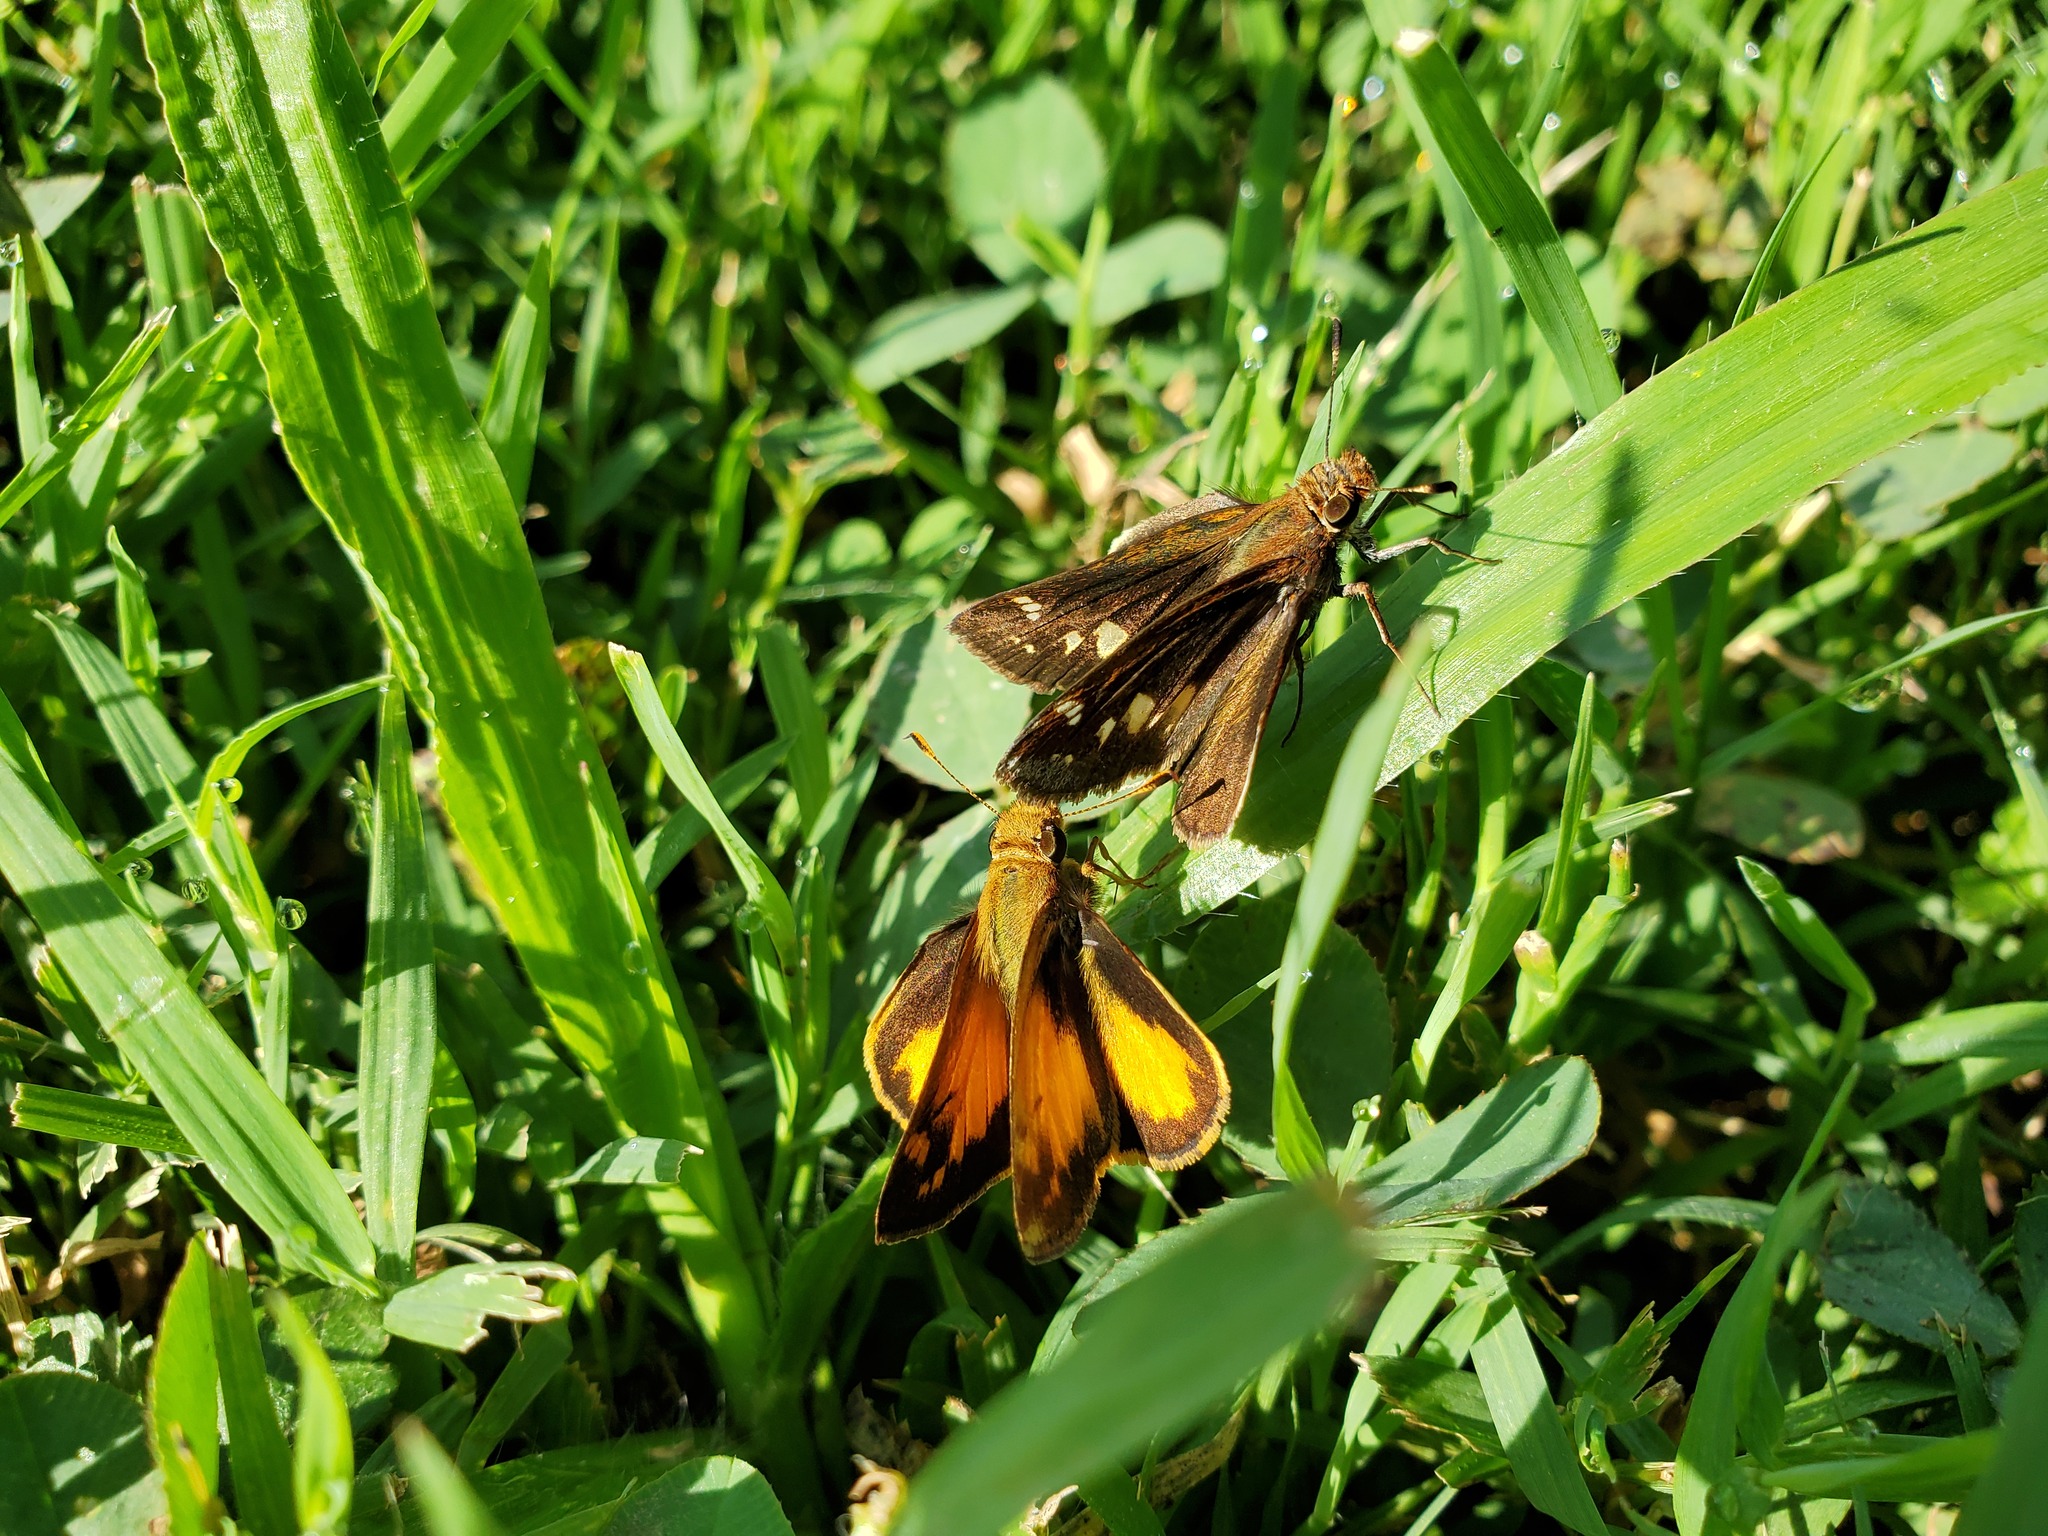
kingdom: Animalia
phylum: Arthropoda
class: Insecta
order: Lepidoptera
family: Hesperiidae
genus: Lon
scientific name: Lon zabulon
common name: Zabulon skipper
